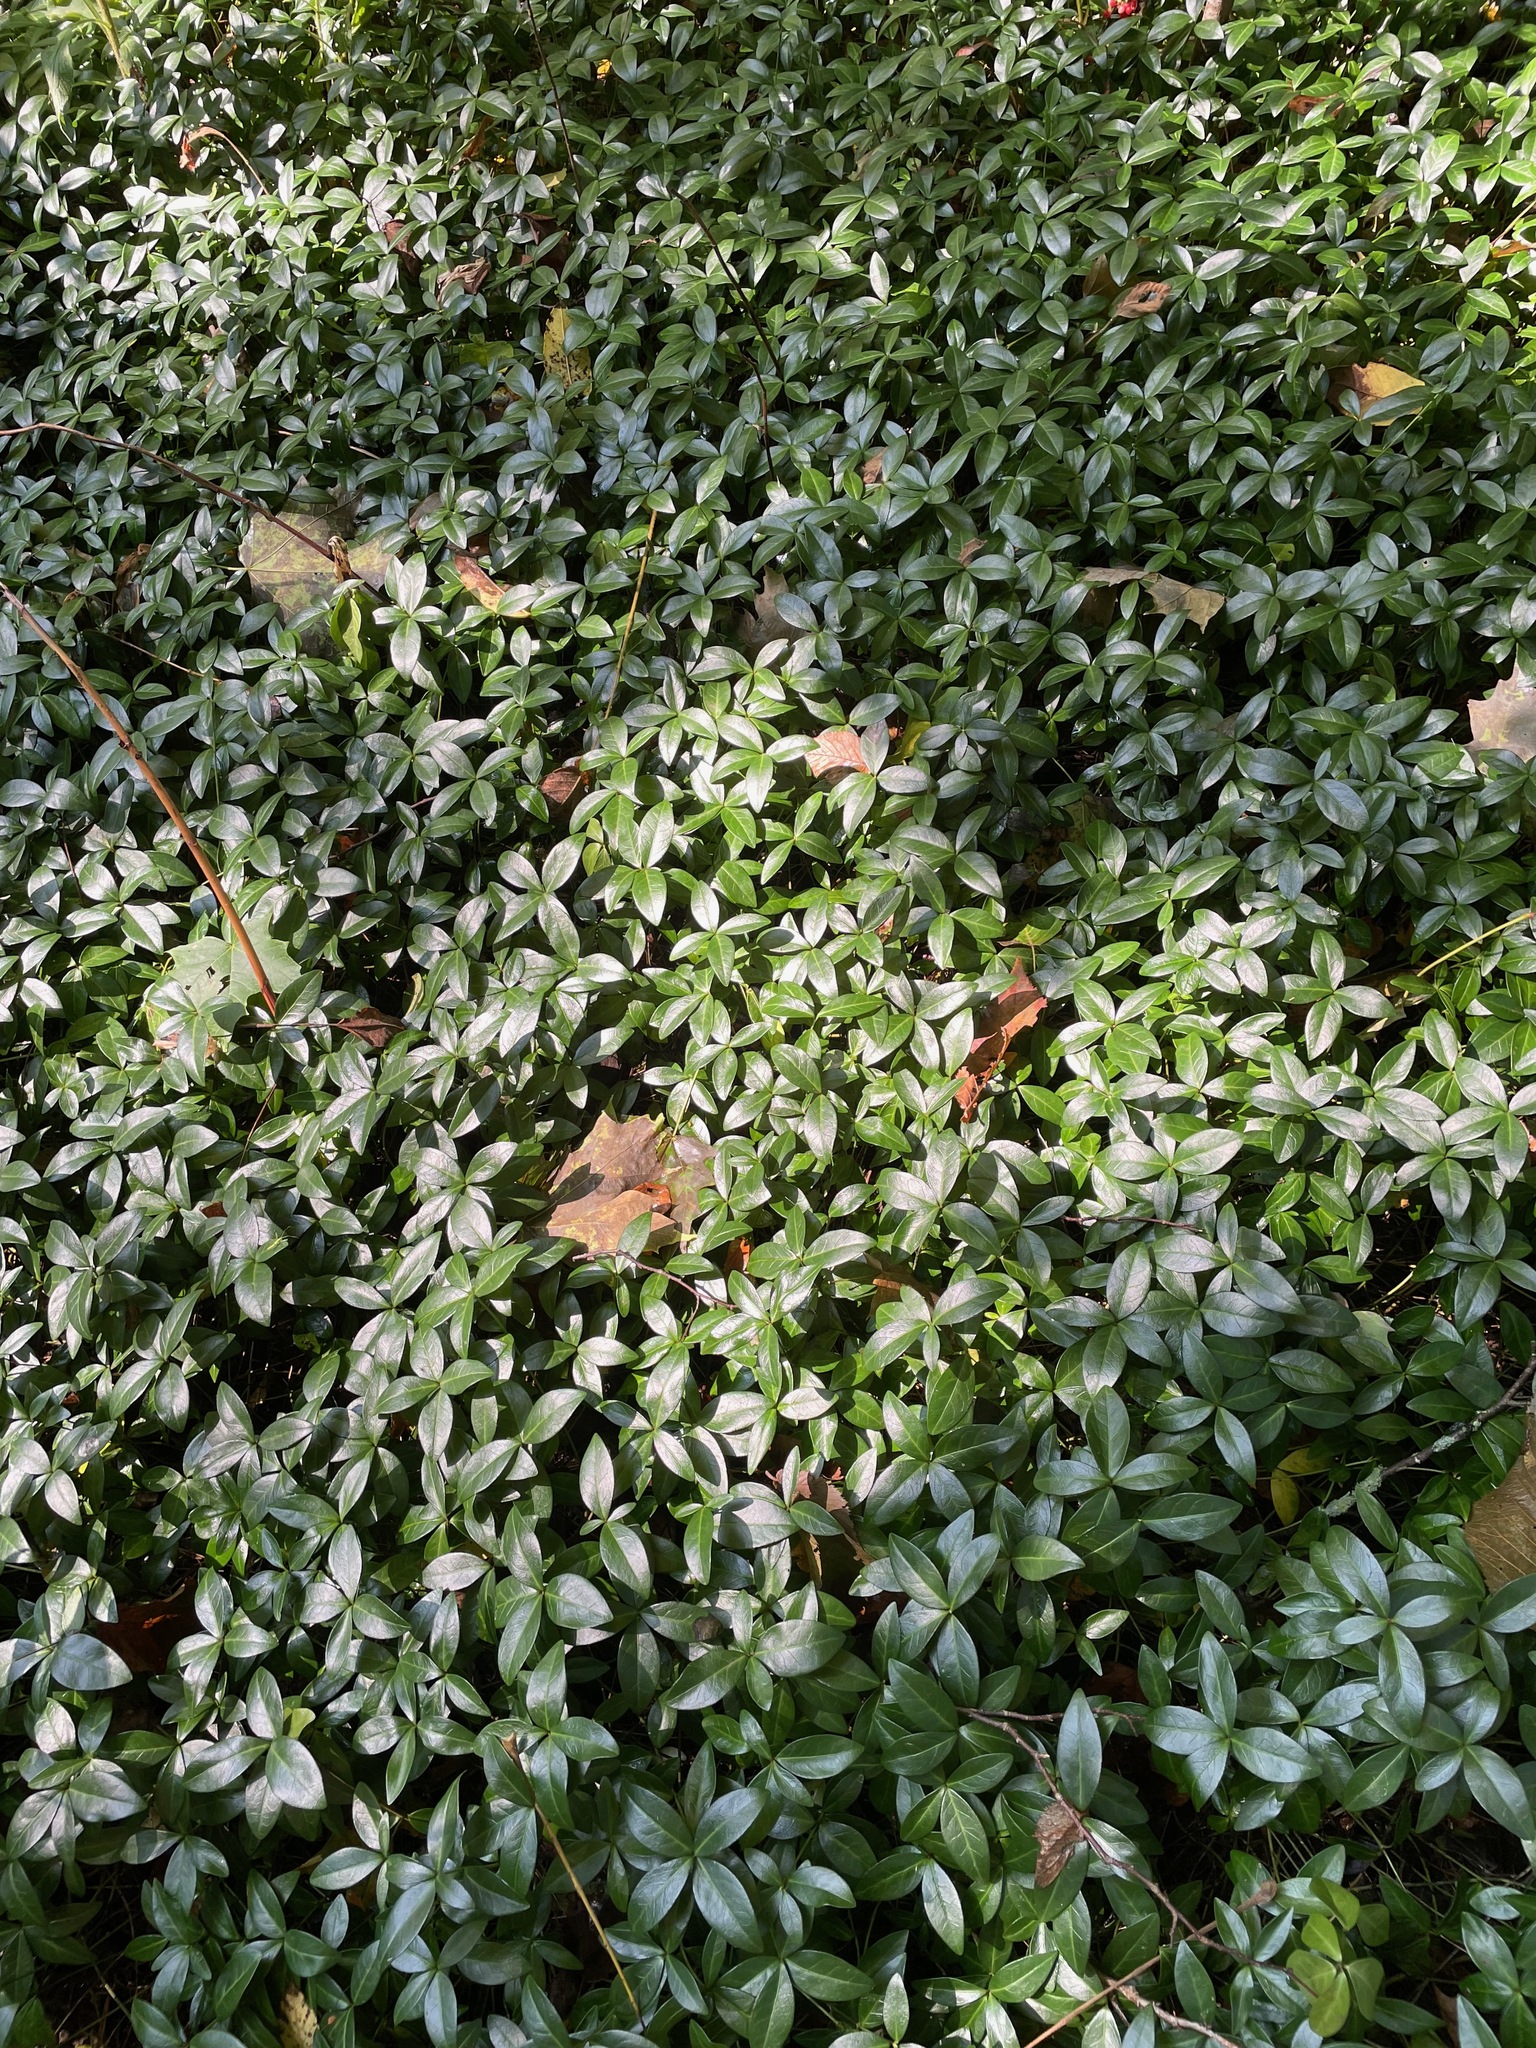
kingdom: Plantae
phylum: Tracheophyta
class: Magnoliopsida
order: Gentianales
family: Apocynaceae
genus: Vinca
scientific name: Vinca minor
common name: Lesser periwinkle
